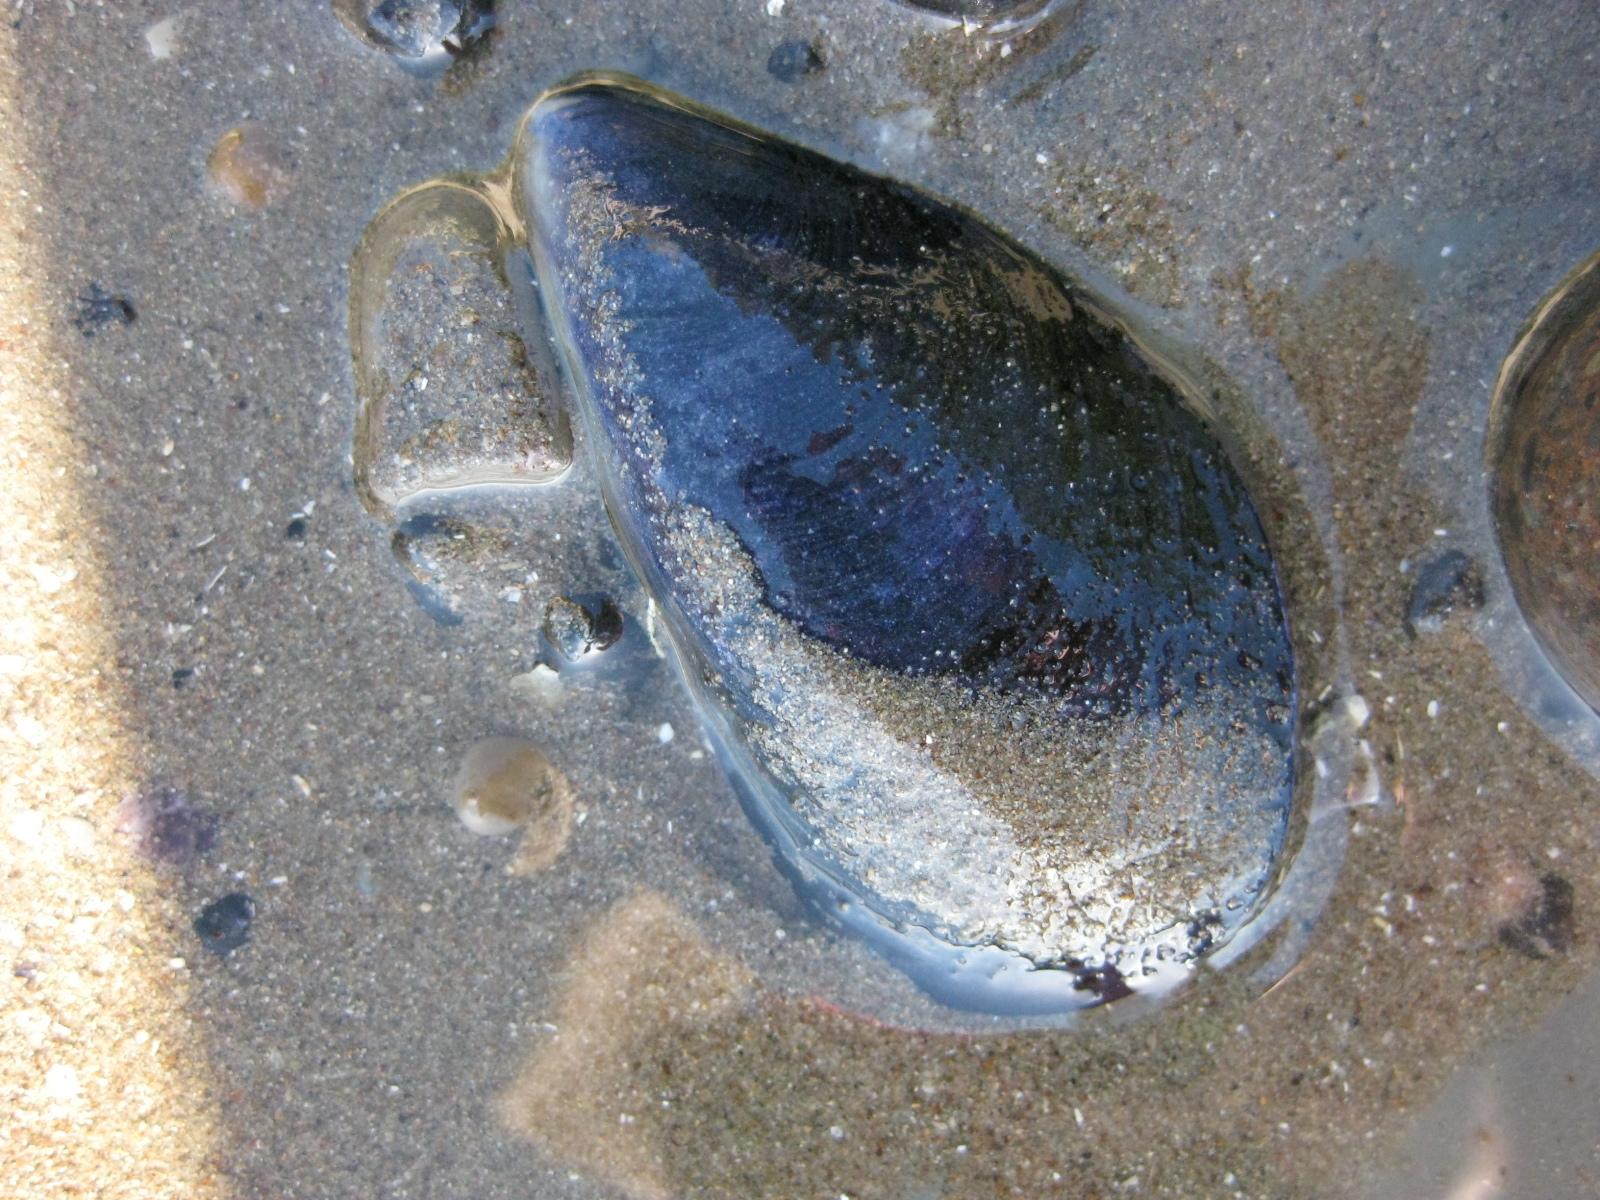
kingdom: Animalia
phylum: Mollusca
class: Bivalvia
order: Mytilida
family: Mytilidae
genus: Mytilus
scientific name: Mytilus planulatus
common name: Australian mussel
